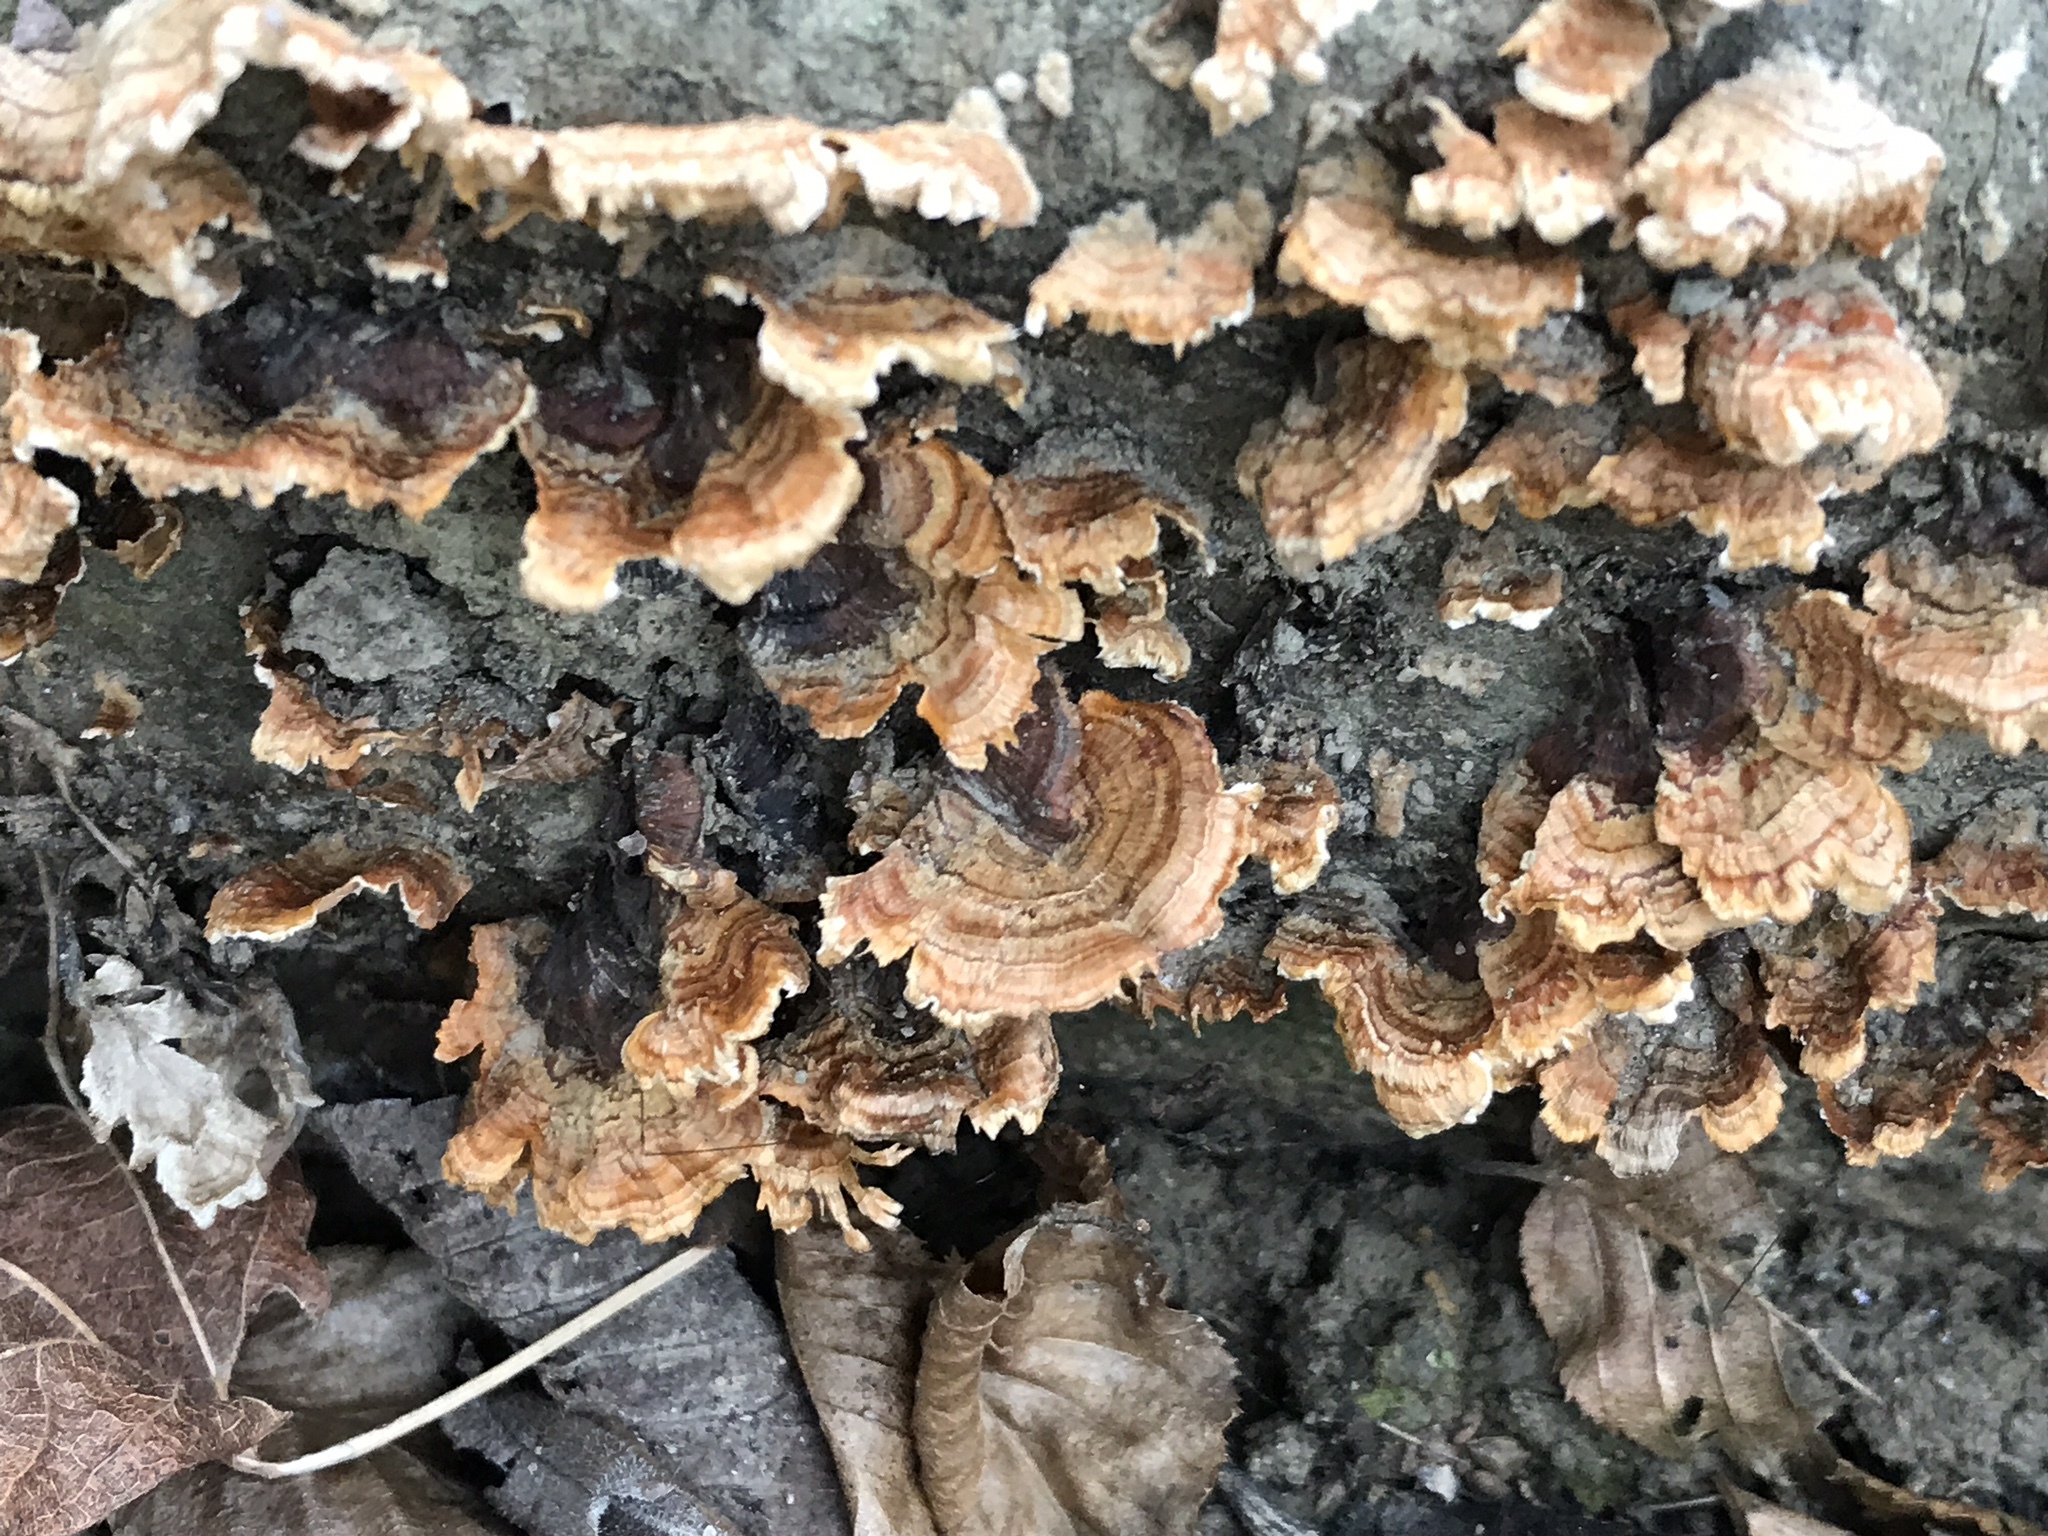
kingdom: Fungi
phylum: Basidiomycota
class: Agaricomycetes
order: Russulales
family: Stereaceae
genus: Stereum
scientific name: Stereum complicatum
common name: Crowded parchment
